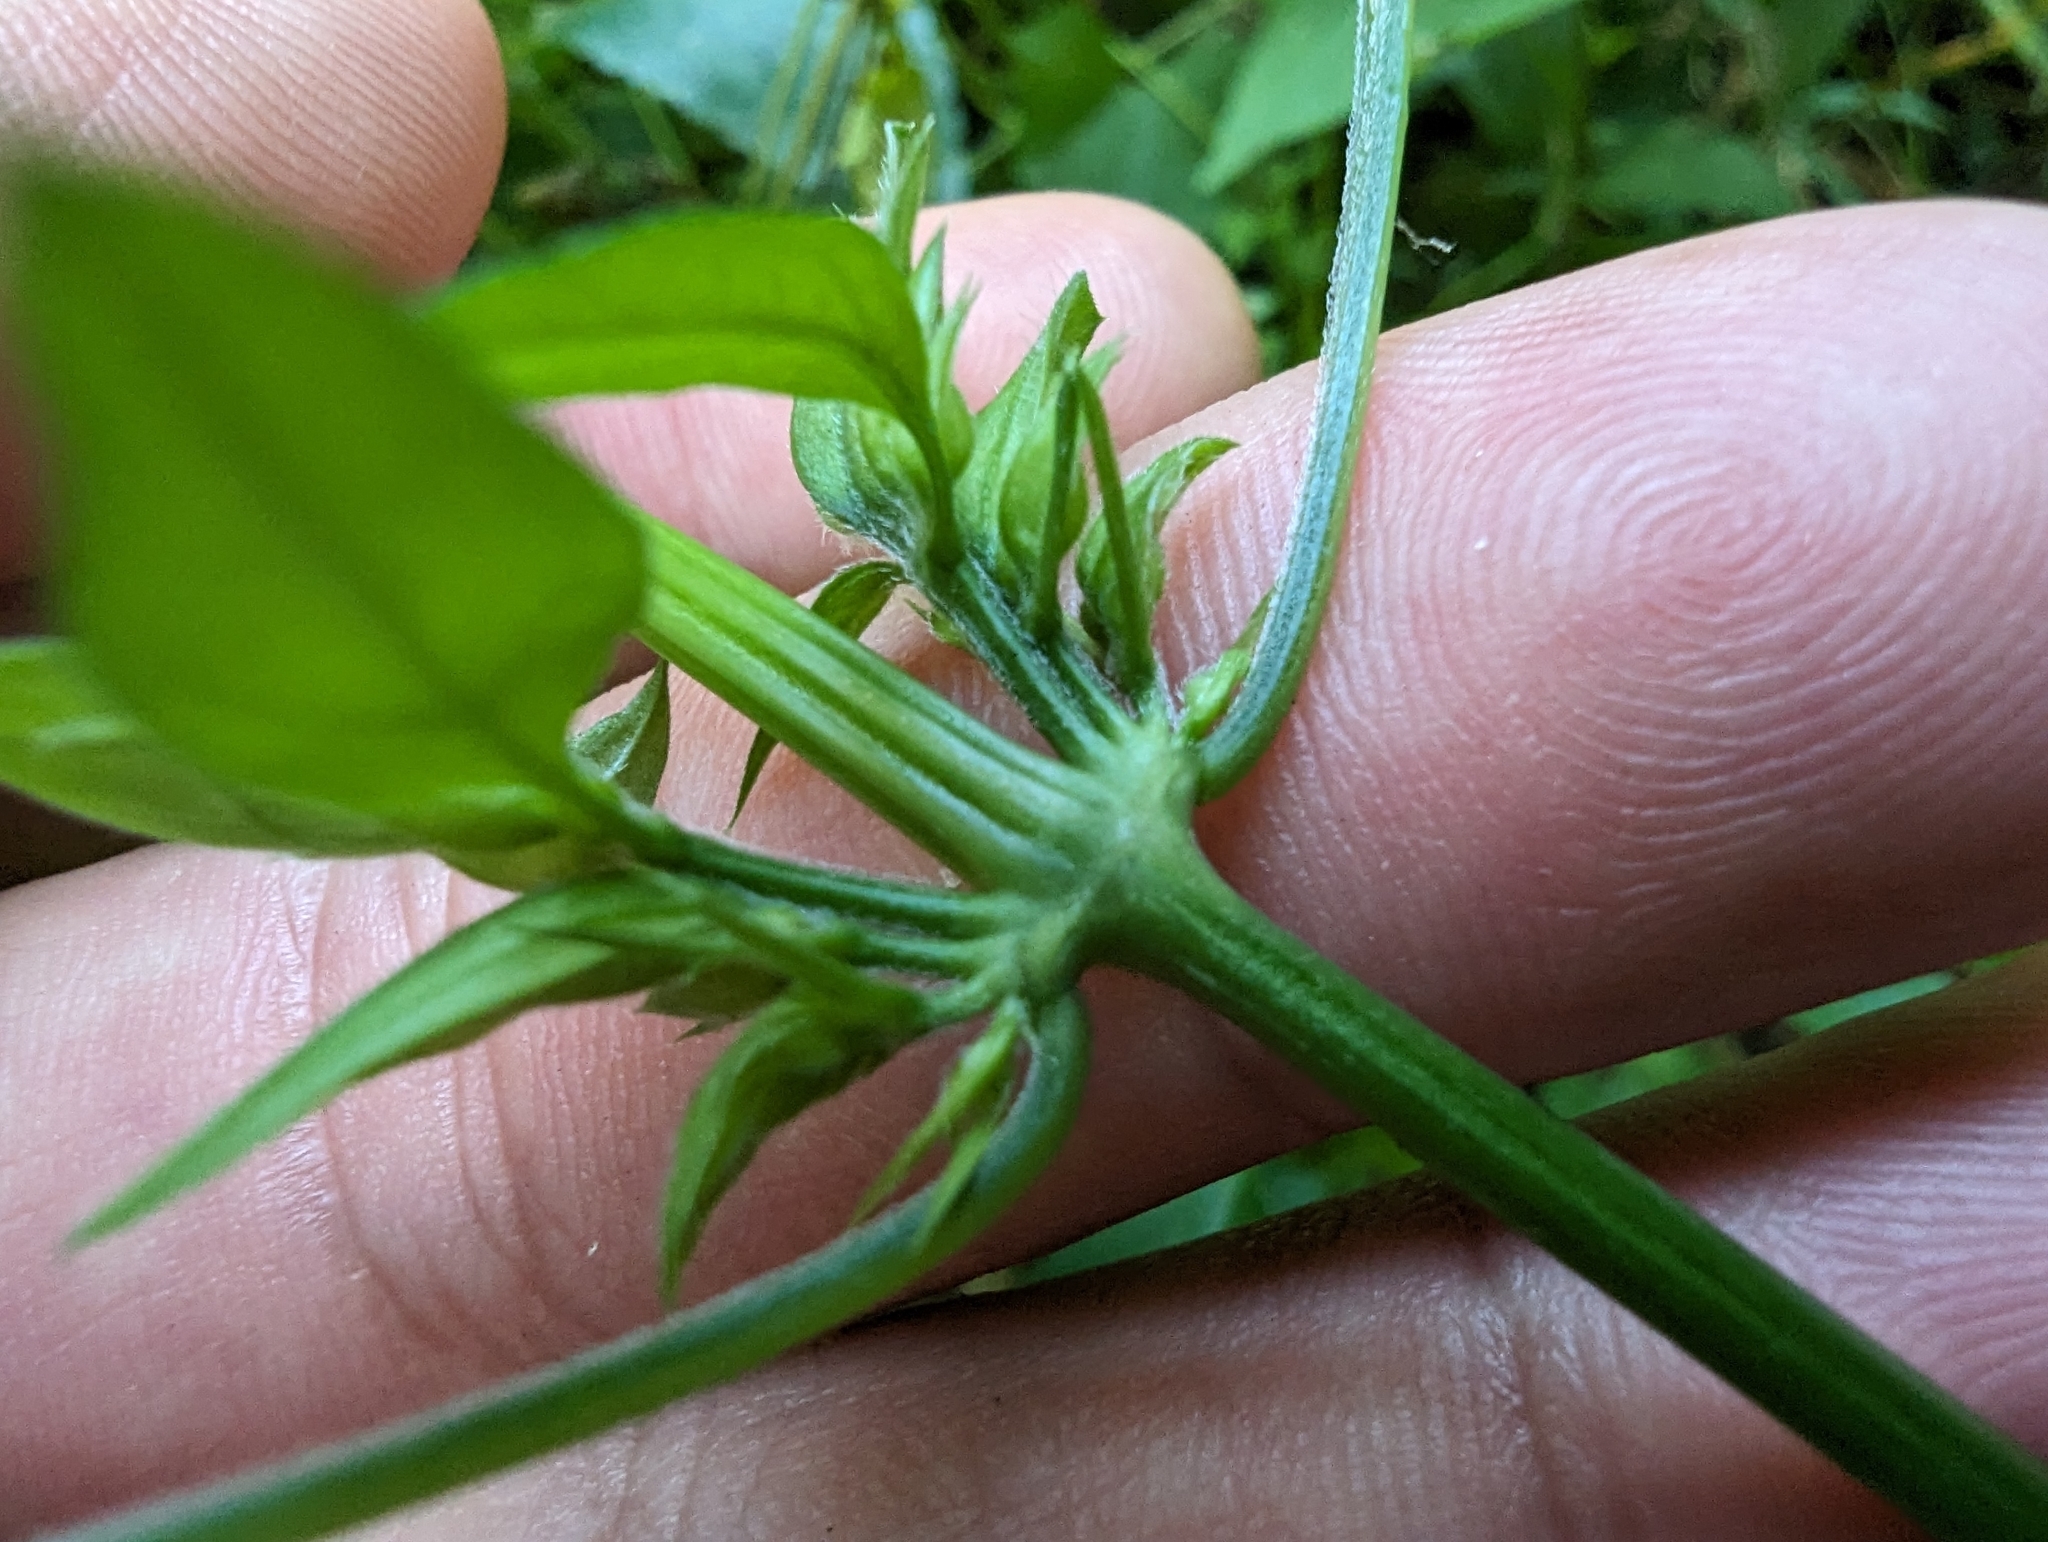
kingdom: Plantae
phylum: Tracheophyta
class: Magnoliopsida
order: Lamiales
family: Acanthaceae
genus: Dicliptera
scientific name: Dicliptera chinensis
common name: Chinese foldwing
